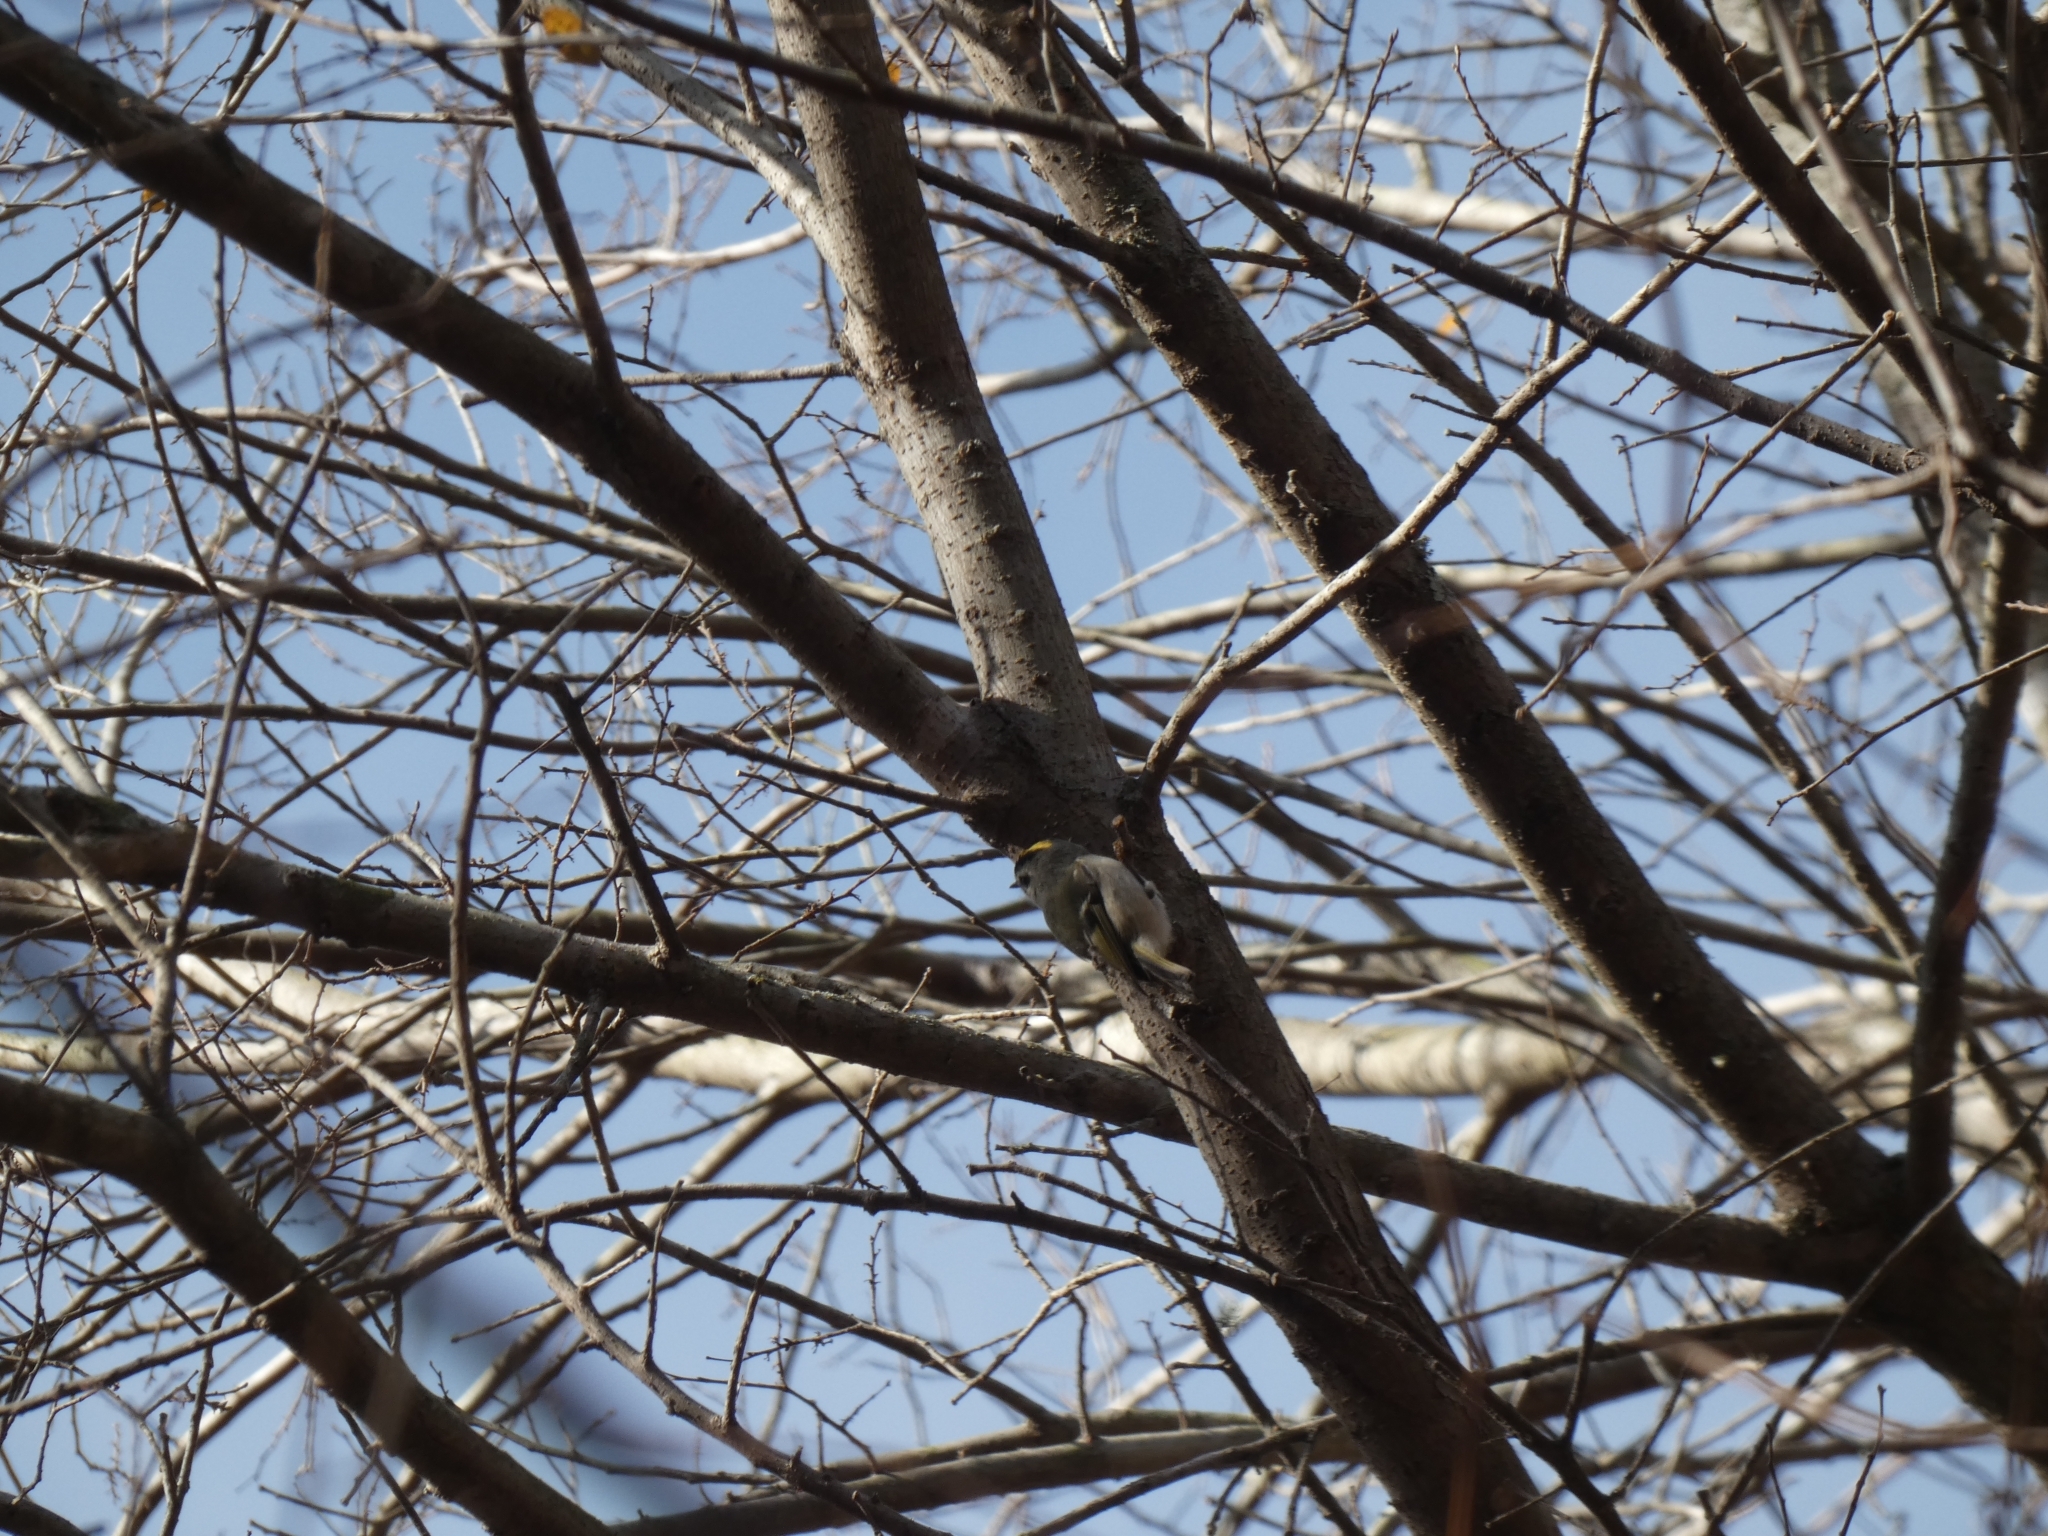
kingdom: Animalia
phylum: Chordata
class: Aves
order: Passeriformes
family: Regulidae
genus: Regulus
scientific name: Regulus satrapa
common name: Golden-crowned kinglet
